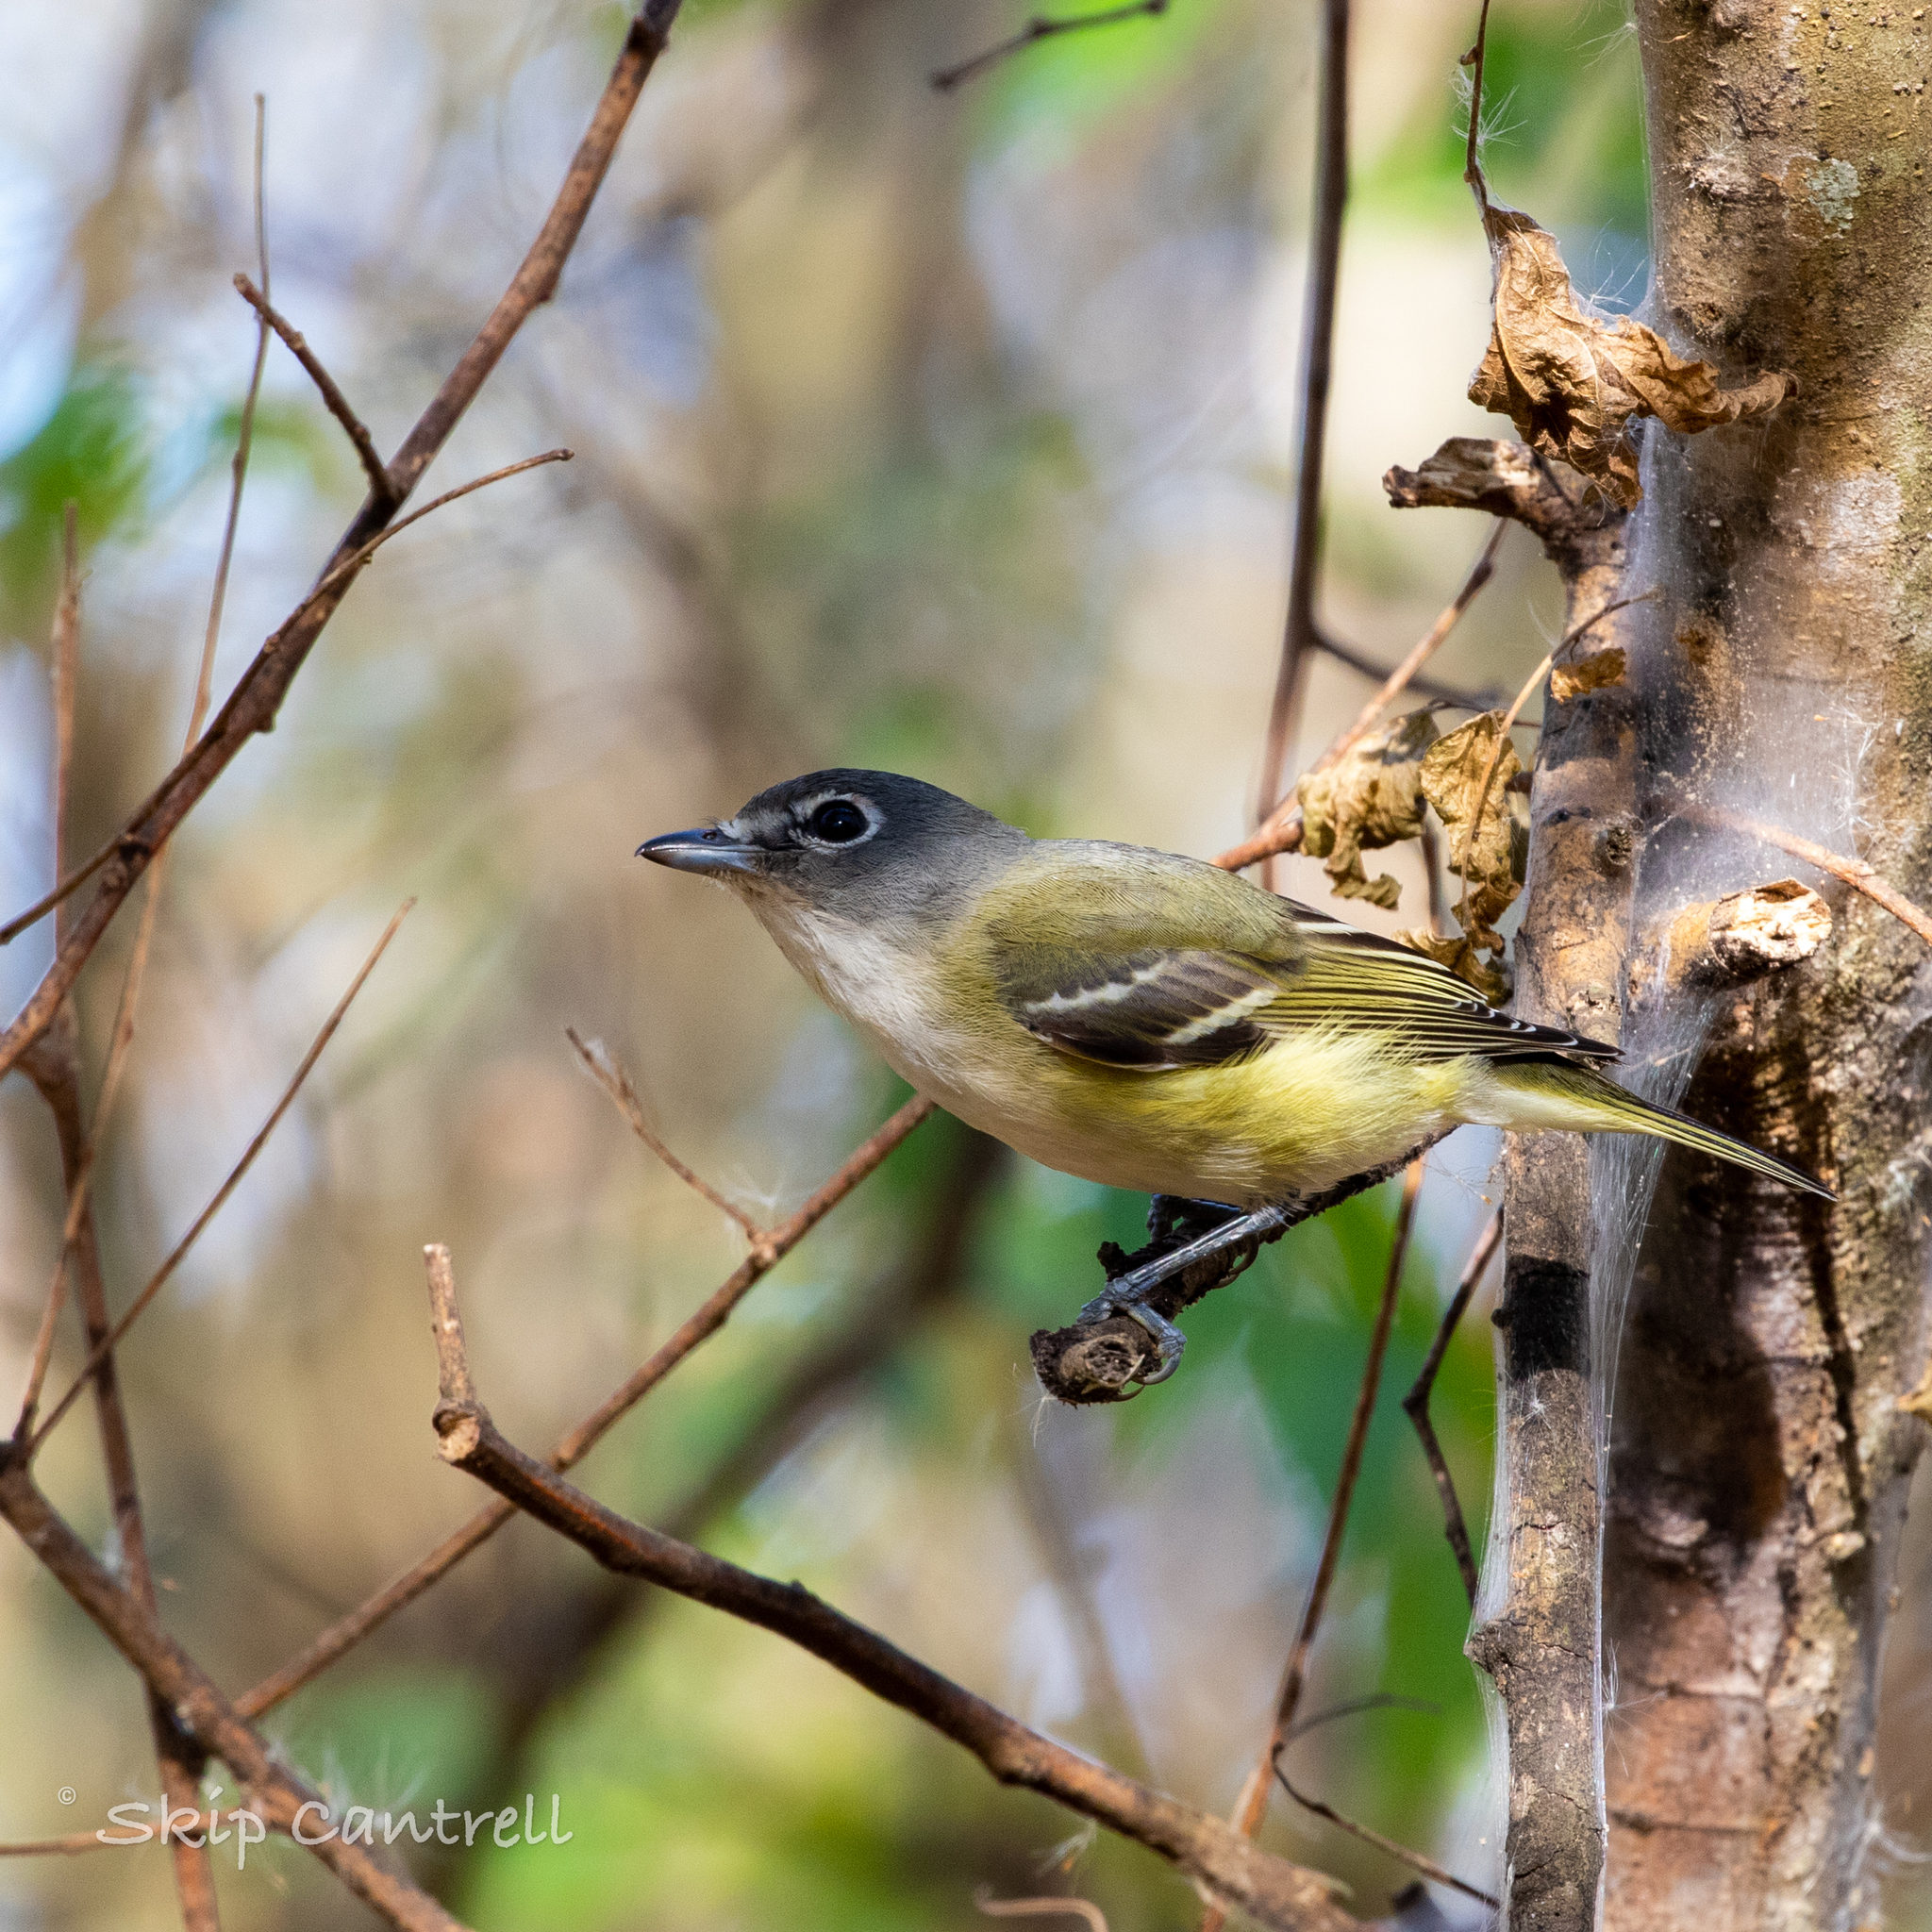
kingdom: Animalia
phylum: Chordata
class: Aves
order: Passeriformes
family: Vireonidae
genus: Vireo
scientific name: Vireo solitarius
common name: Blue-headed vireo
